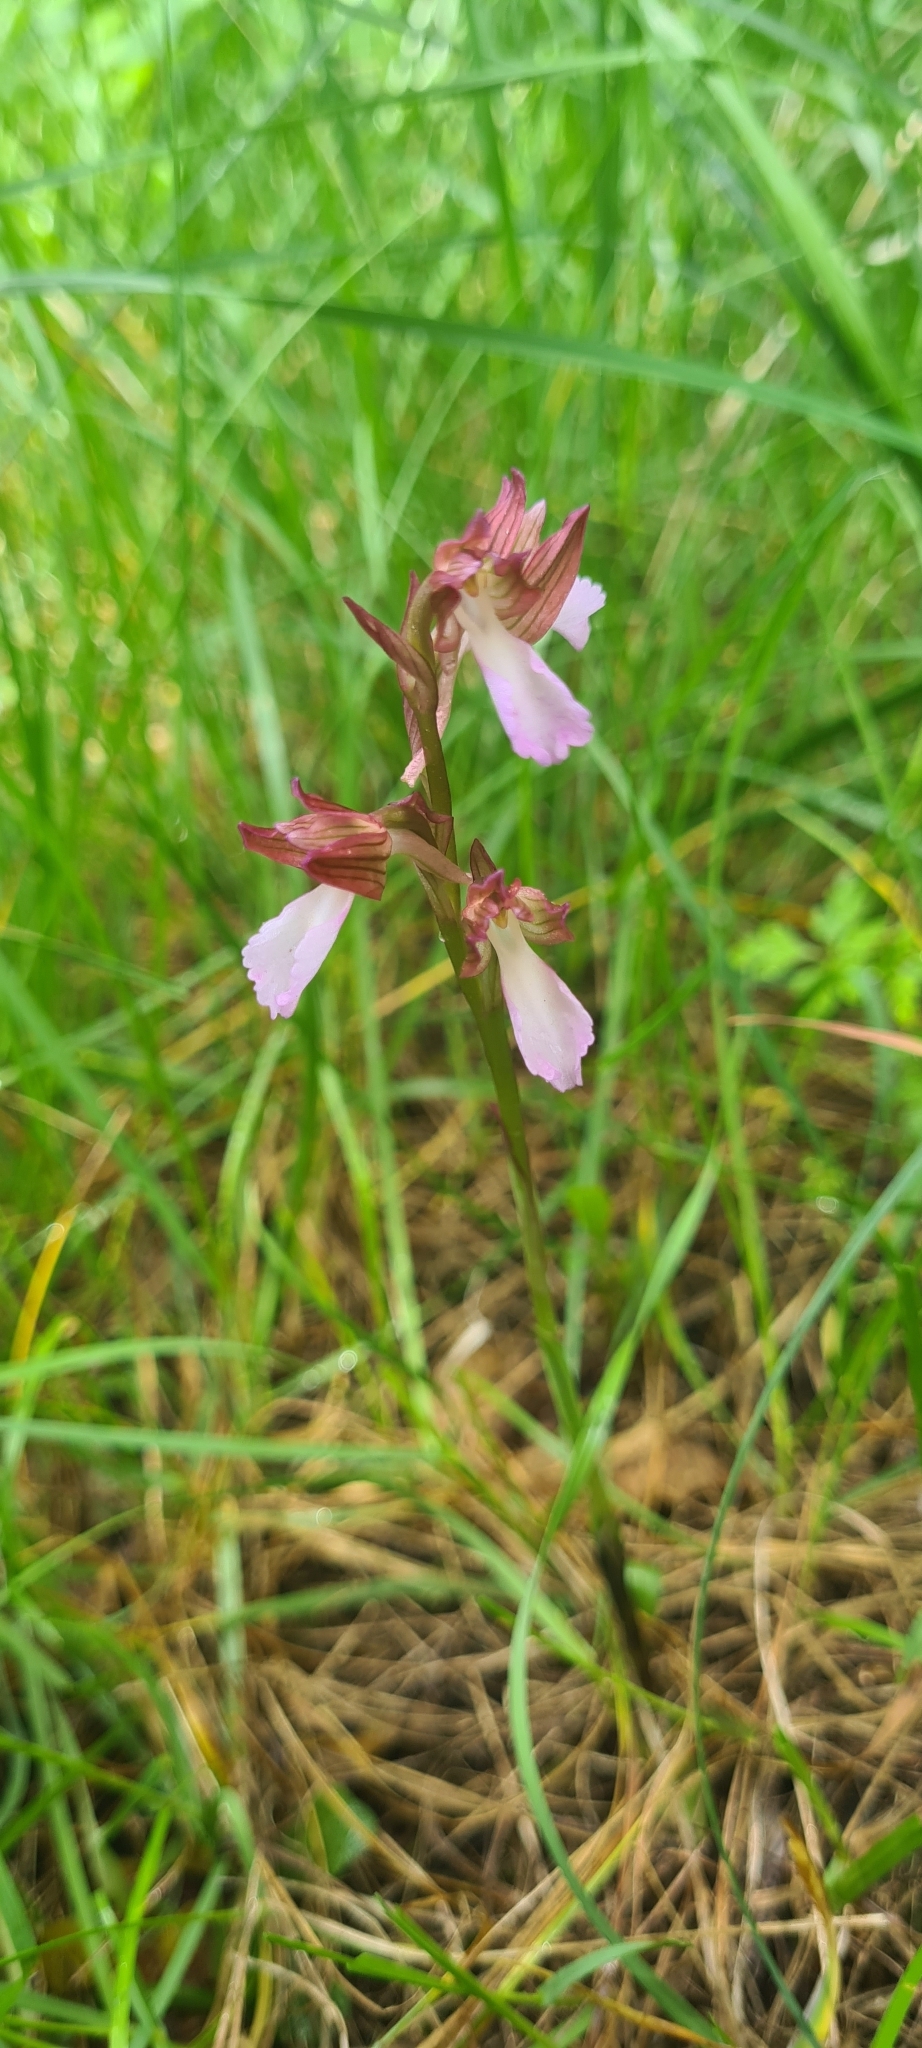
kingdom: Plantae
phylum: Tracheophyta
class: Liliopsida
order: Asparagales
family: Orchidaceae
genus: Anacamptis
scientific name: Anacamptis papilionacea
